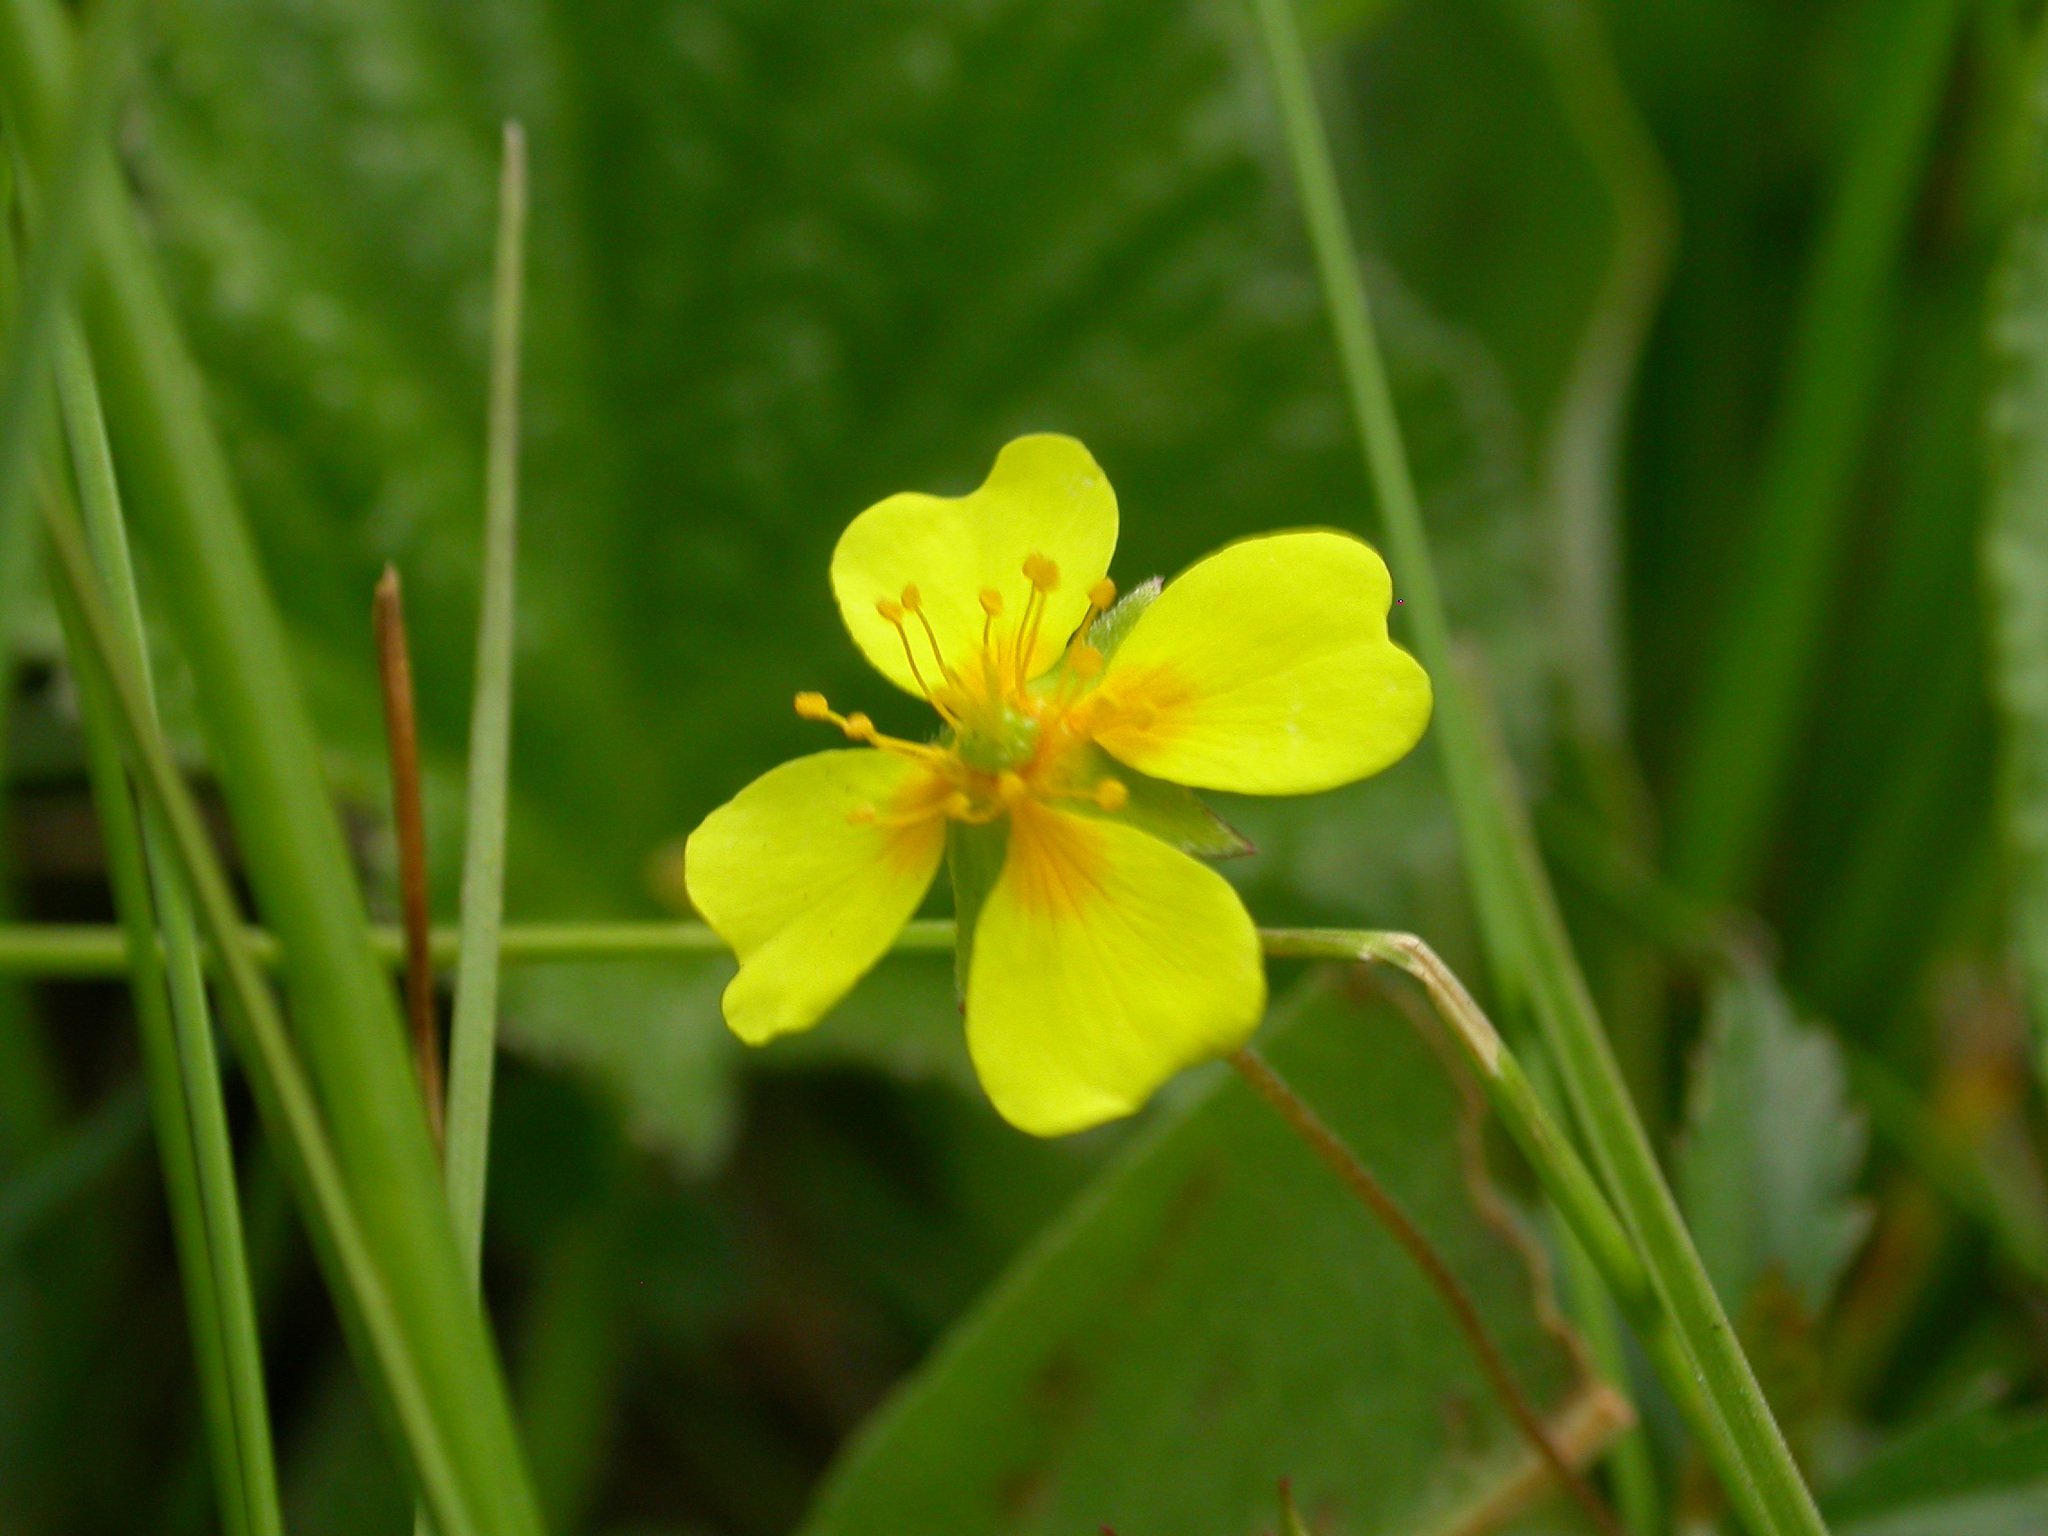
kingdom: Plantae
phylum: Tracheophyta
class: Magnoliopsida
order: Rosales
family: Rosaceae
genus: Potentilla
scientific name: Potentilla erecta
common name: Tormentil
